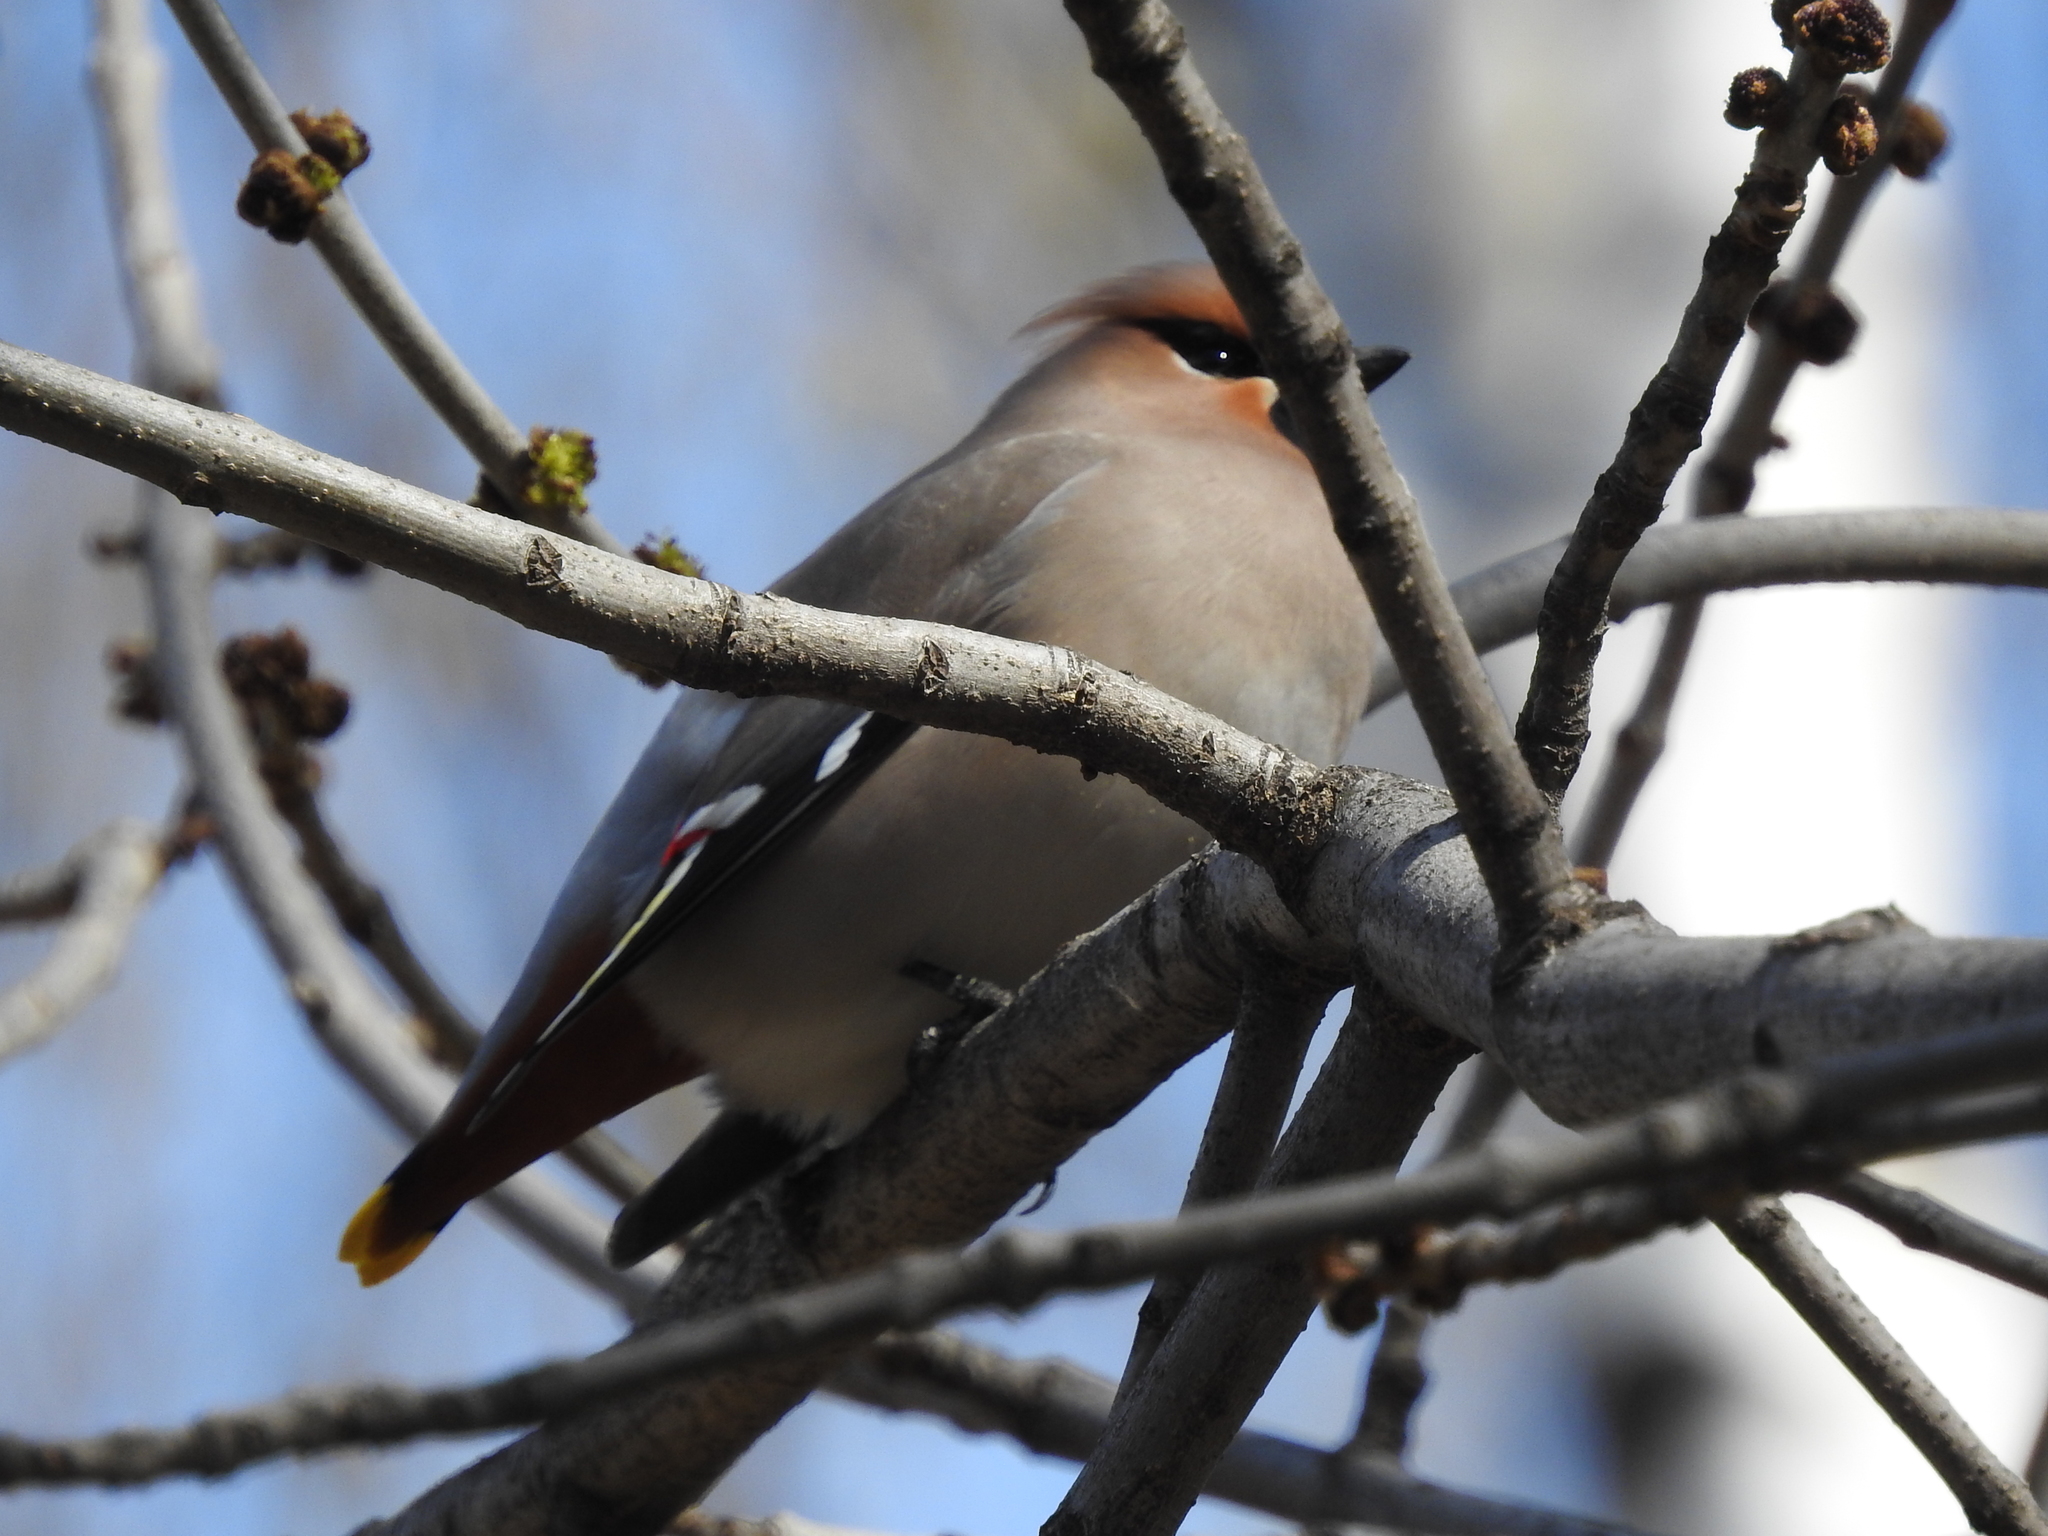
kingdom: Animalia
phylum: Chordata
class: Aves
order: Passeriformes
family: Bombycillidae
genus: Bombycilla
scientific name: Bombycilla garrulus
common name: Bohemian waxwing
